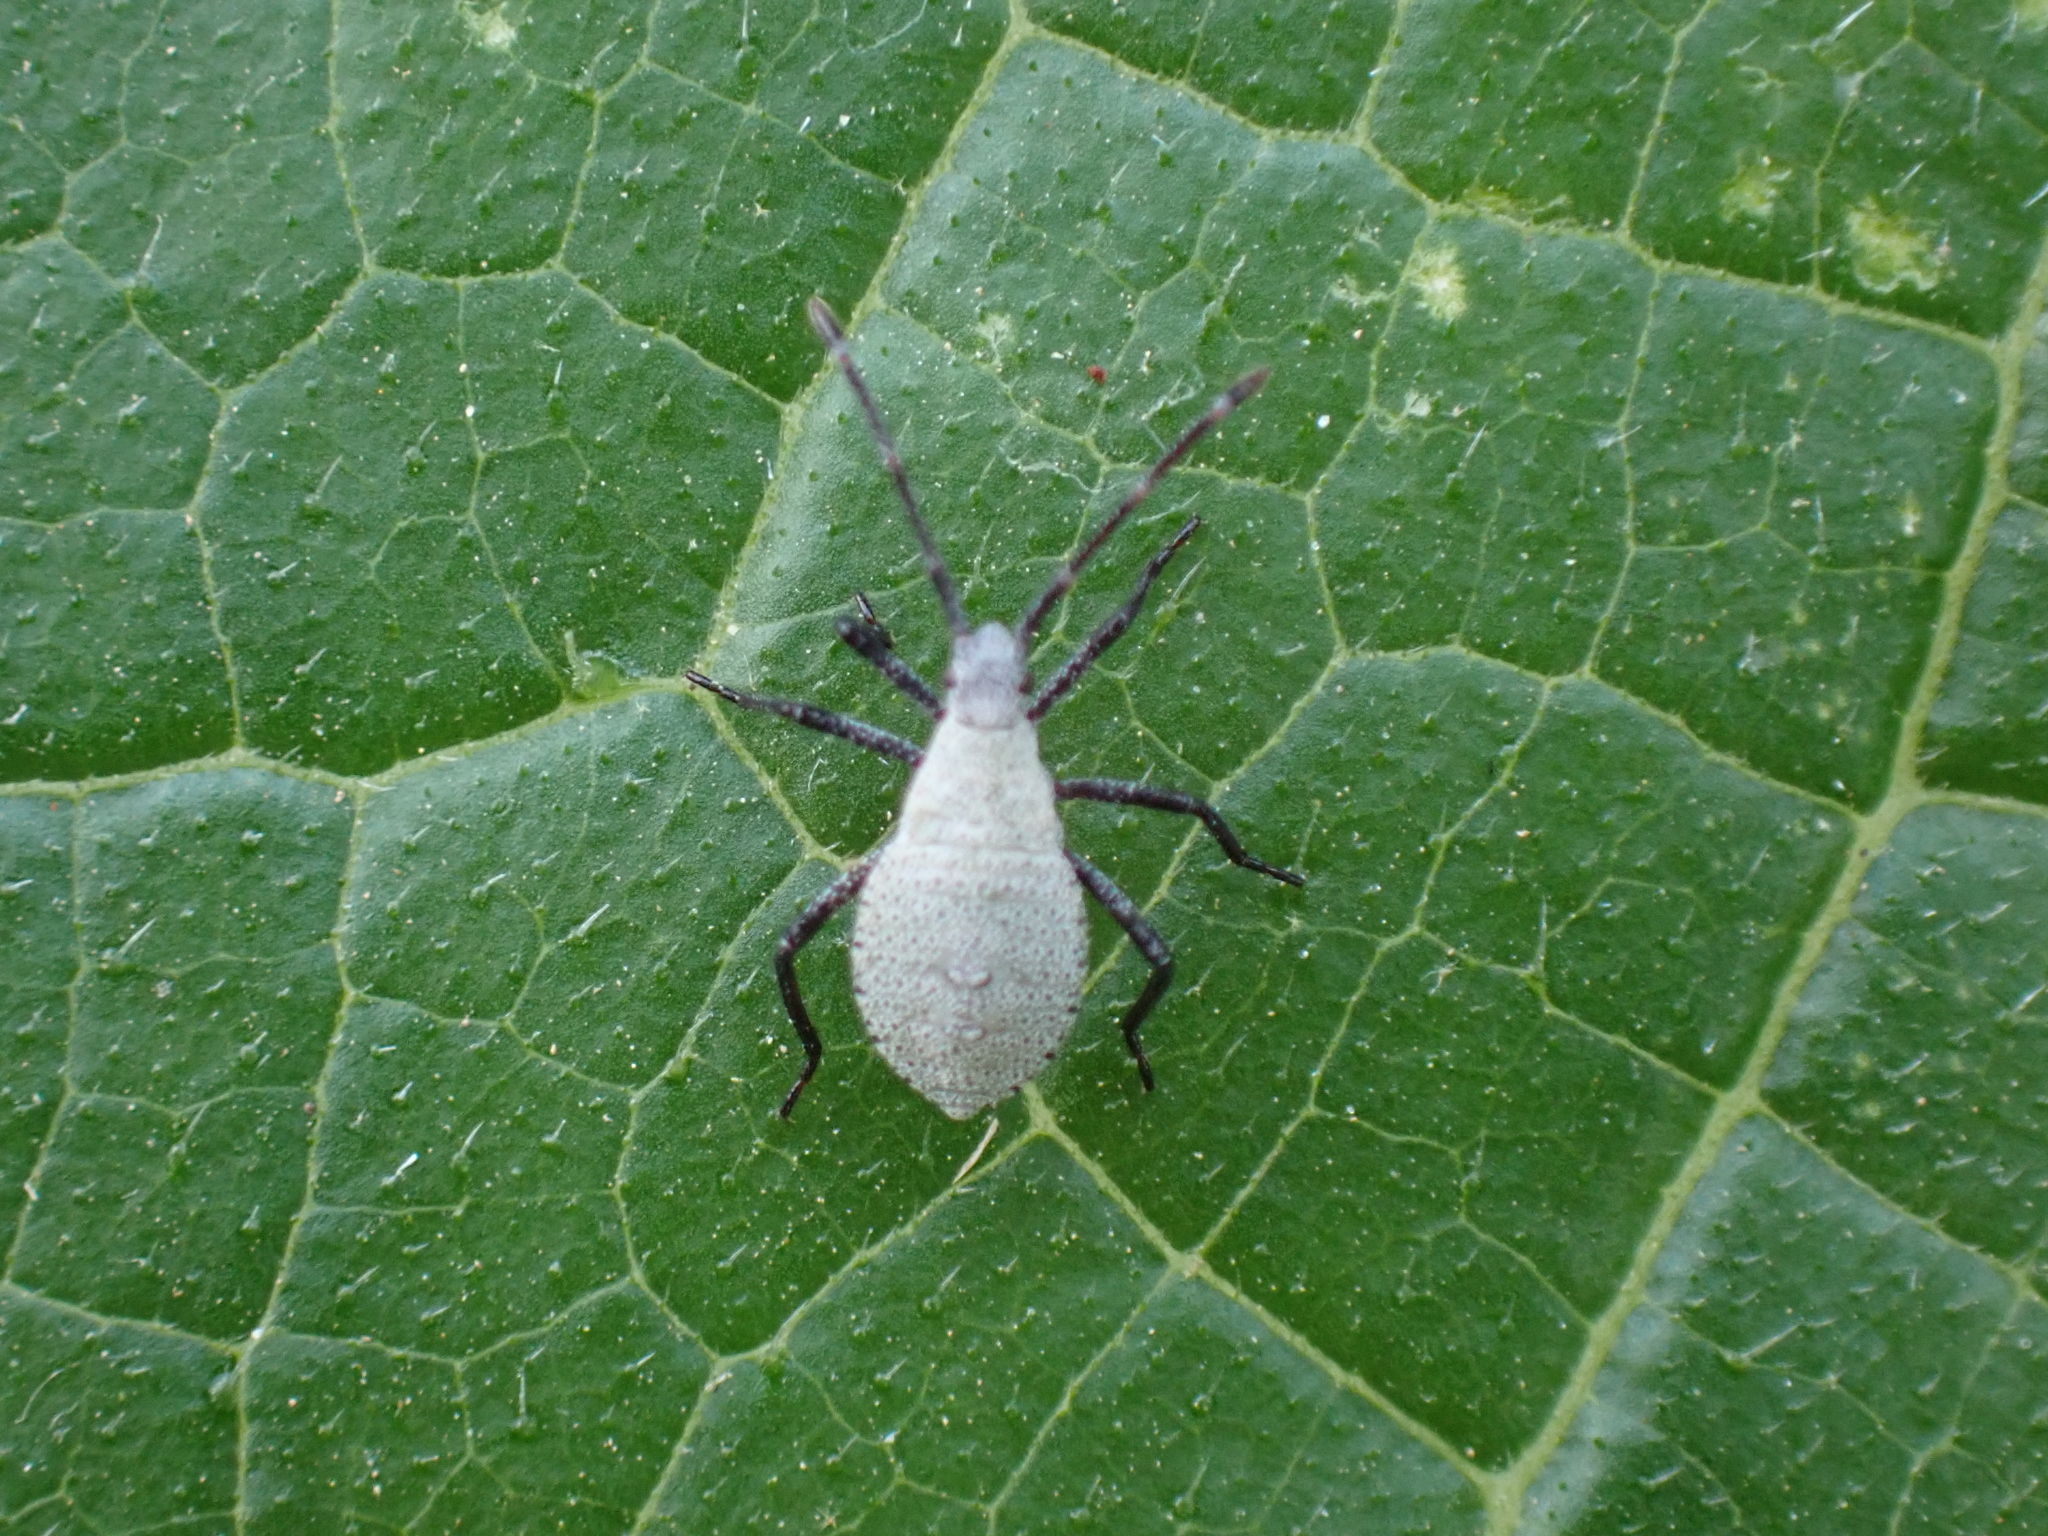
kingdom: Animalia
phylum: Arthropoda
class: Insecta
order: Hemiptera
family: Coreidae
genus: Anasa
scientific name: Anasa tristis
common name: Squash bug
